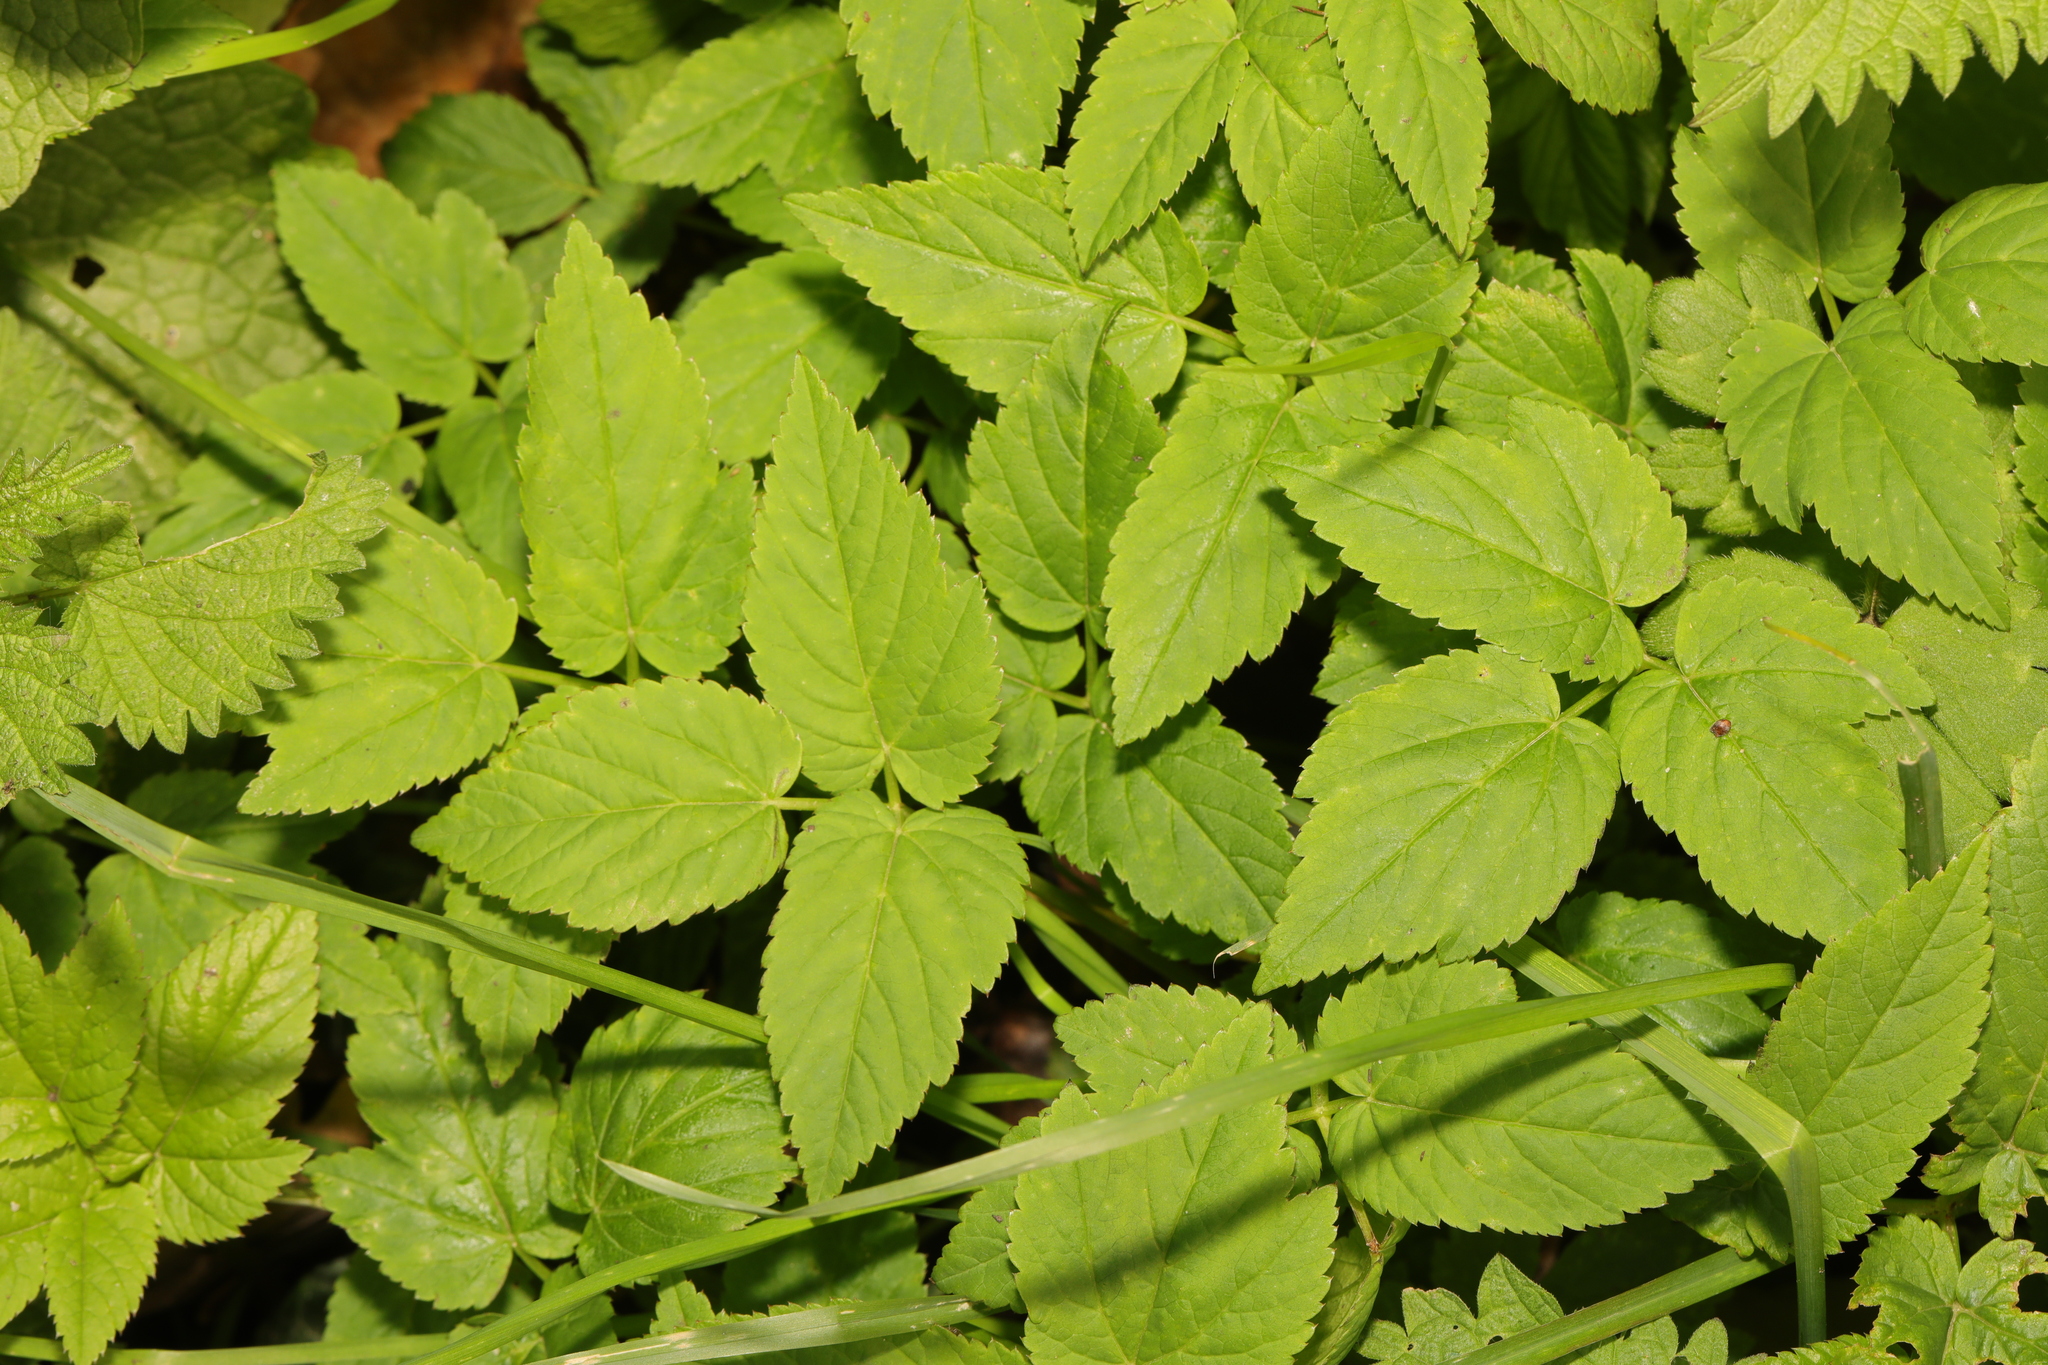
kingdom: Plantae
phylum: Tracheophyta
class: Magnoliopsida
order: Apiales
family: Apiaceae
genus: Aegopodium
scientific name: Aegopodium podagraria
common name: Ground-elder
